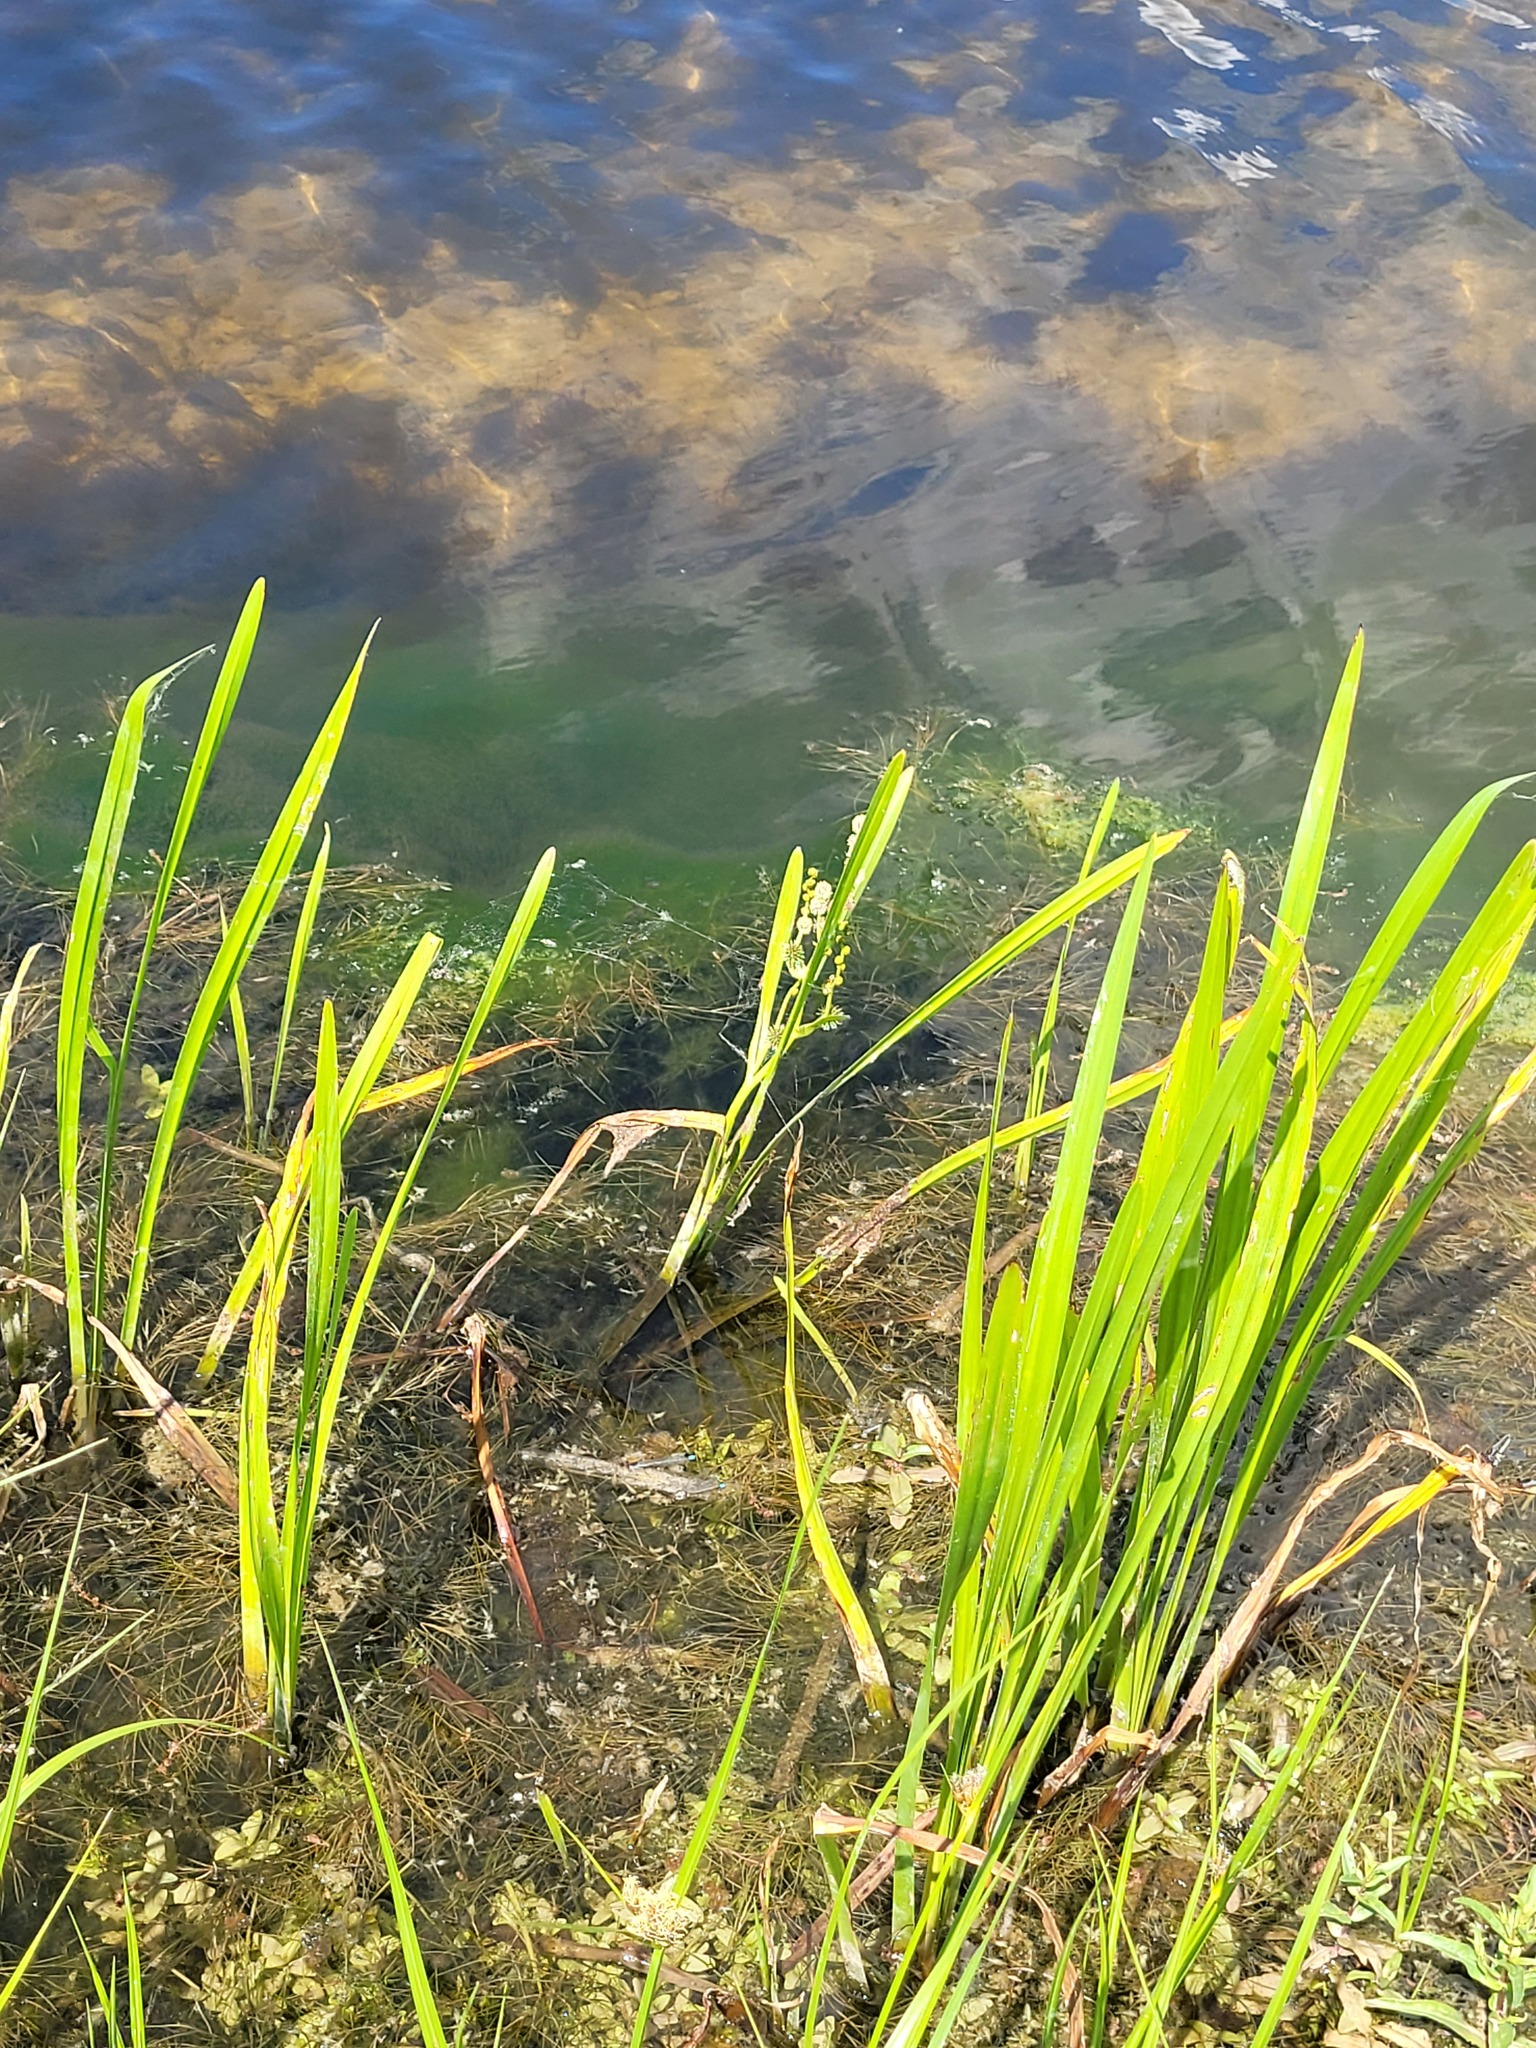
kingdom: Plantae
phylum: Tracheophyta
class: Liliopsida
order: Poales
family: Typhaceae
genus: Sparganium
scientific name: Sparganium erectum
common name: Branched bur-reed
